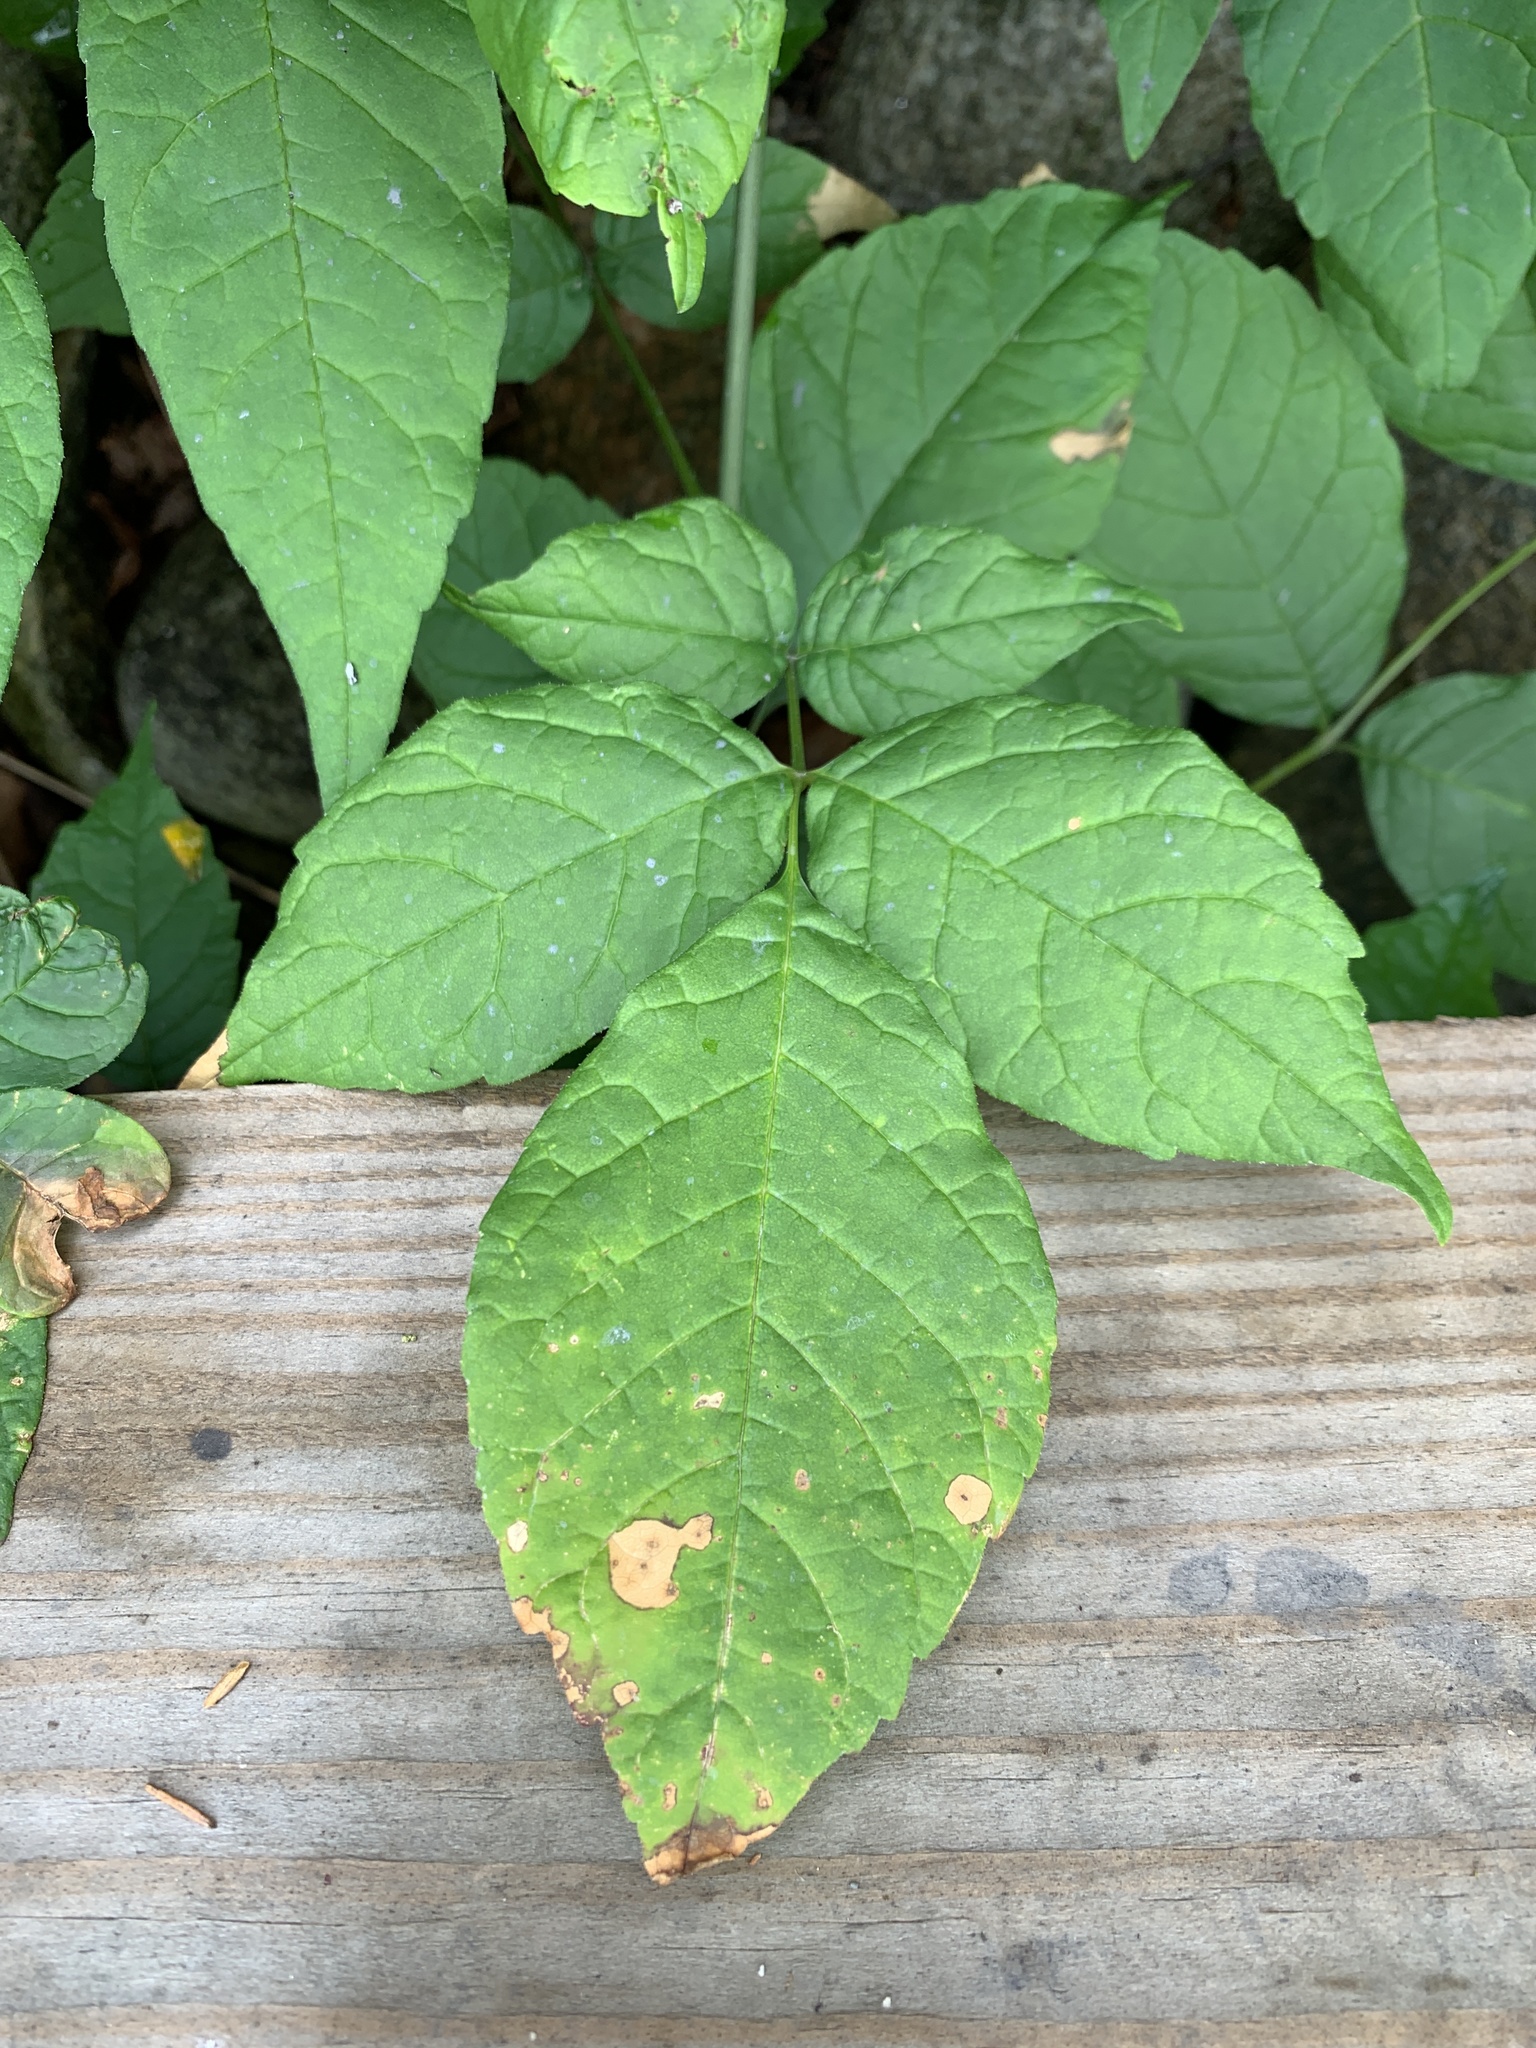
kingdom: Plantae
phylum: Tracheophyta
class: Magnoliopsida
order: Sapindales
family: Anacardiaceae
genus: Toxicodendron
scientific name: Toxicodendron radicans
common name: Poison ivy
